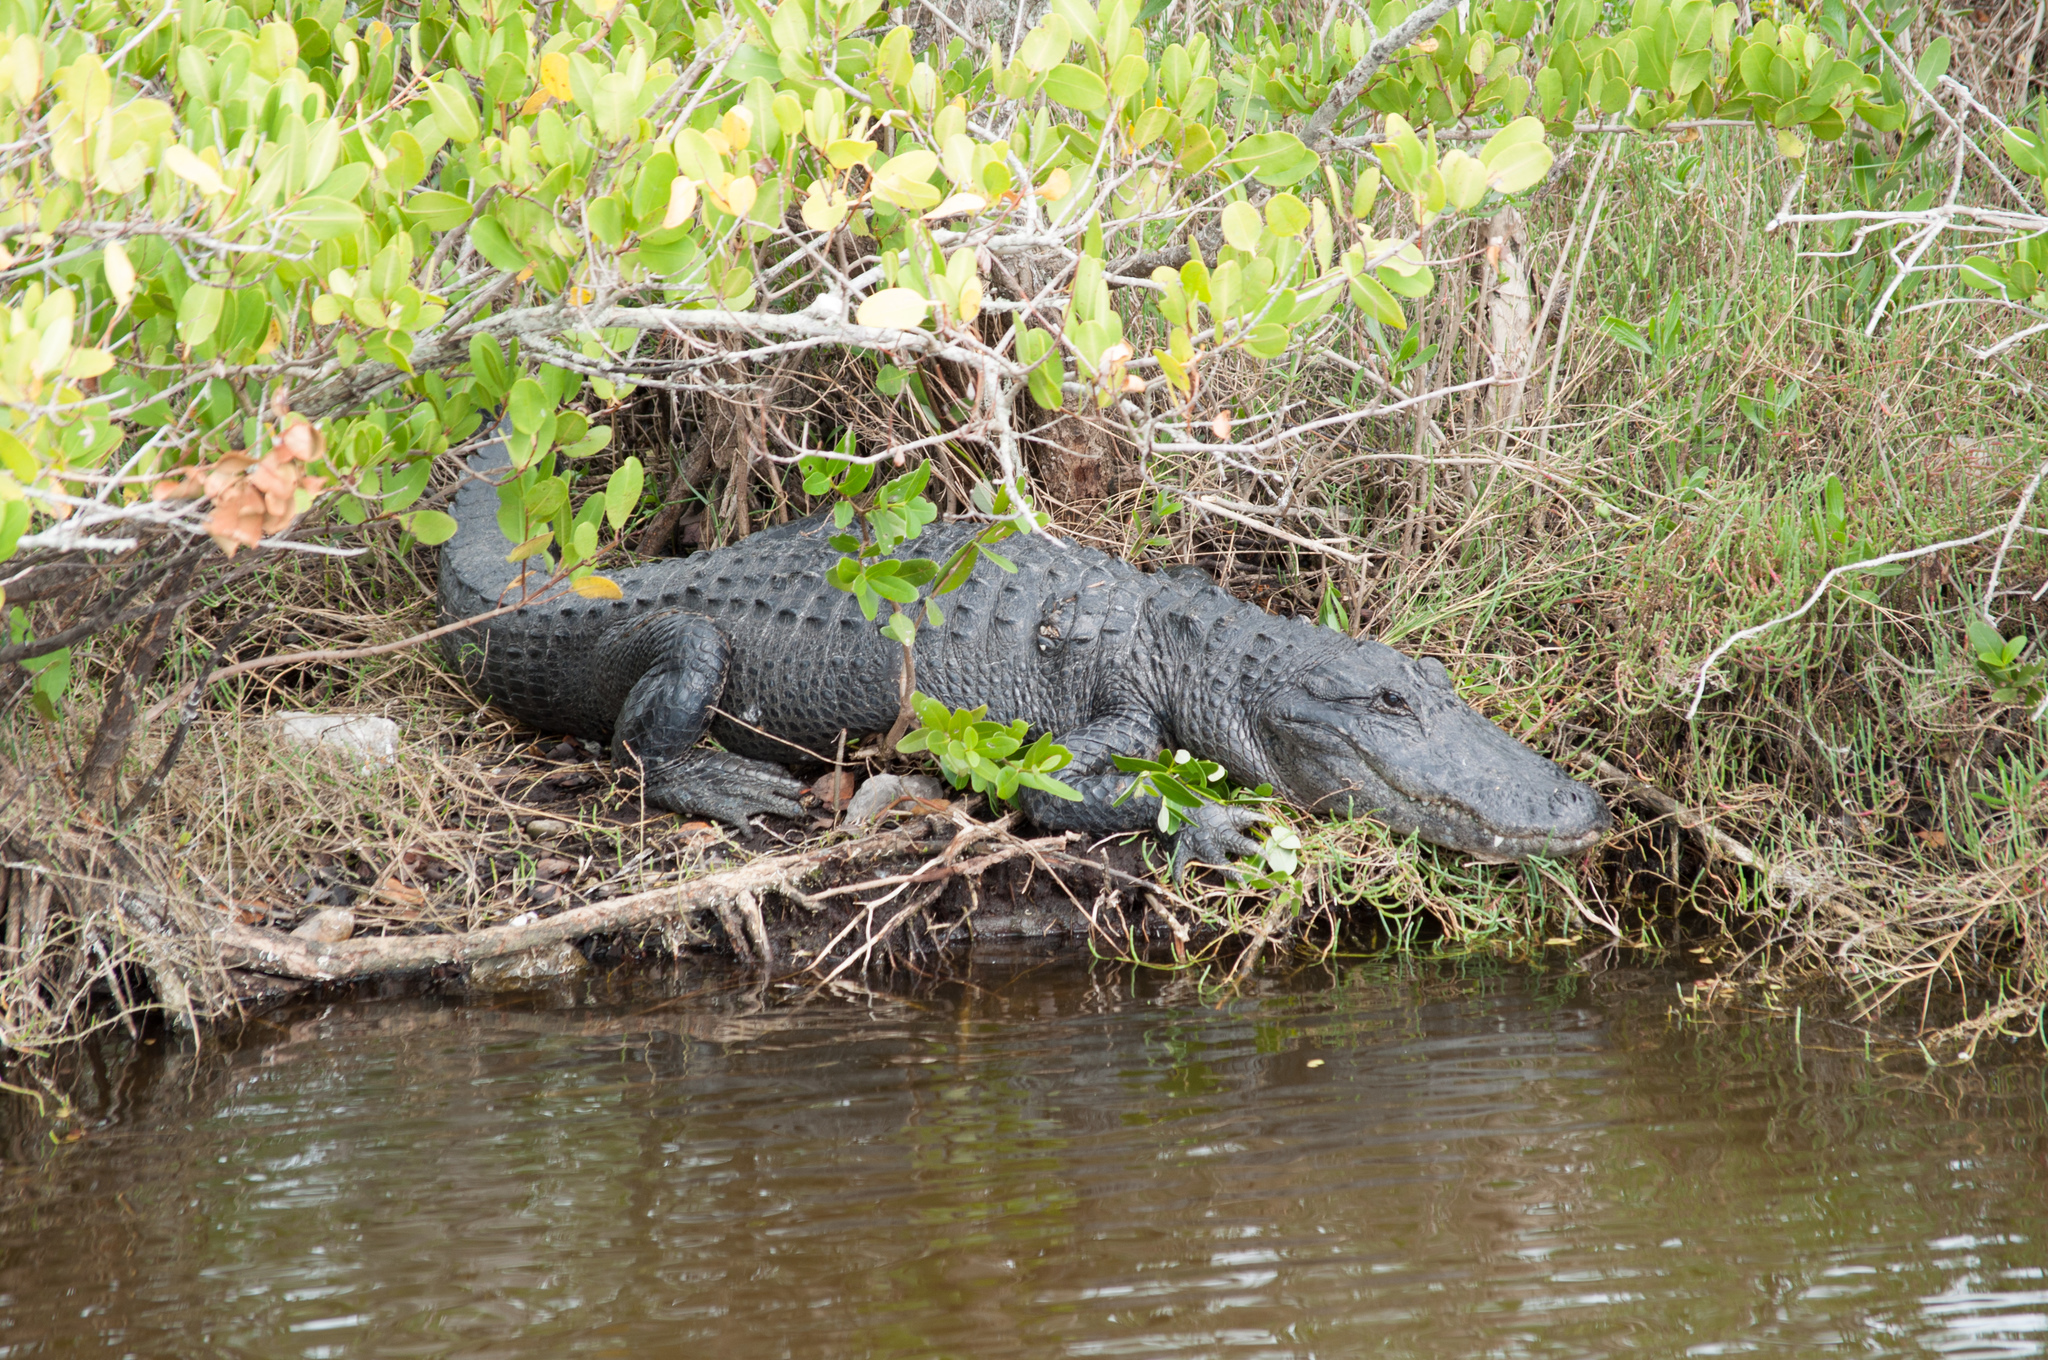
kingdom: Animalia
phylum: Chordata
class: Crocodylia
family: Alligatoridae
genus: Alligator
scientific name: Alligator mississippiensis
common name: American alligator
